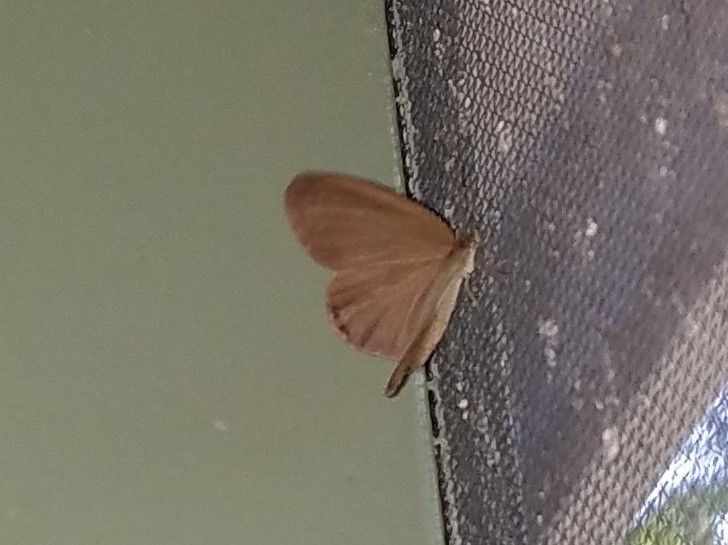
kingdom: Animalia
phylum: Arthropoda
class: Insecta
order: Lepidoptera
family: Nymphalidae
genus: Euptychia
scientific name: Euptychia cornelius
